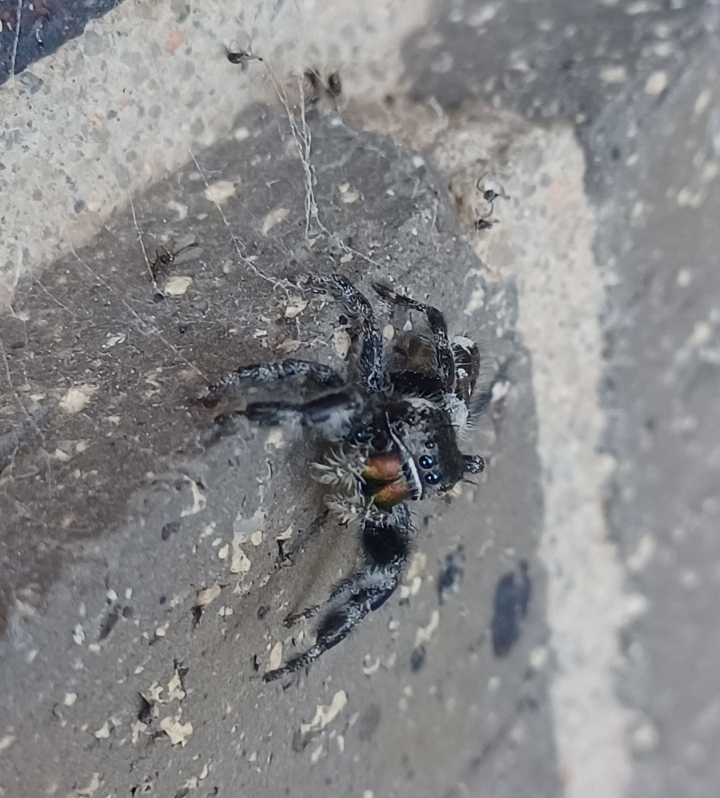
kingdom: Animalia
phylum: Arthropoda
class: Arachnida
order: Araneae
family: Salticidae
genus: Phidippus
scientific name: Phidippus audax
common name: Bold jumper
